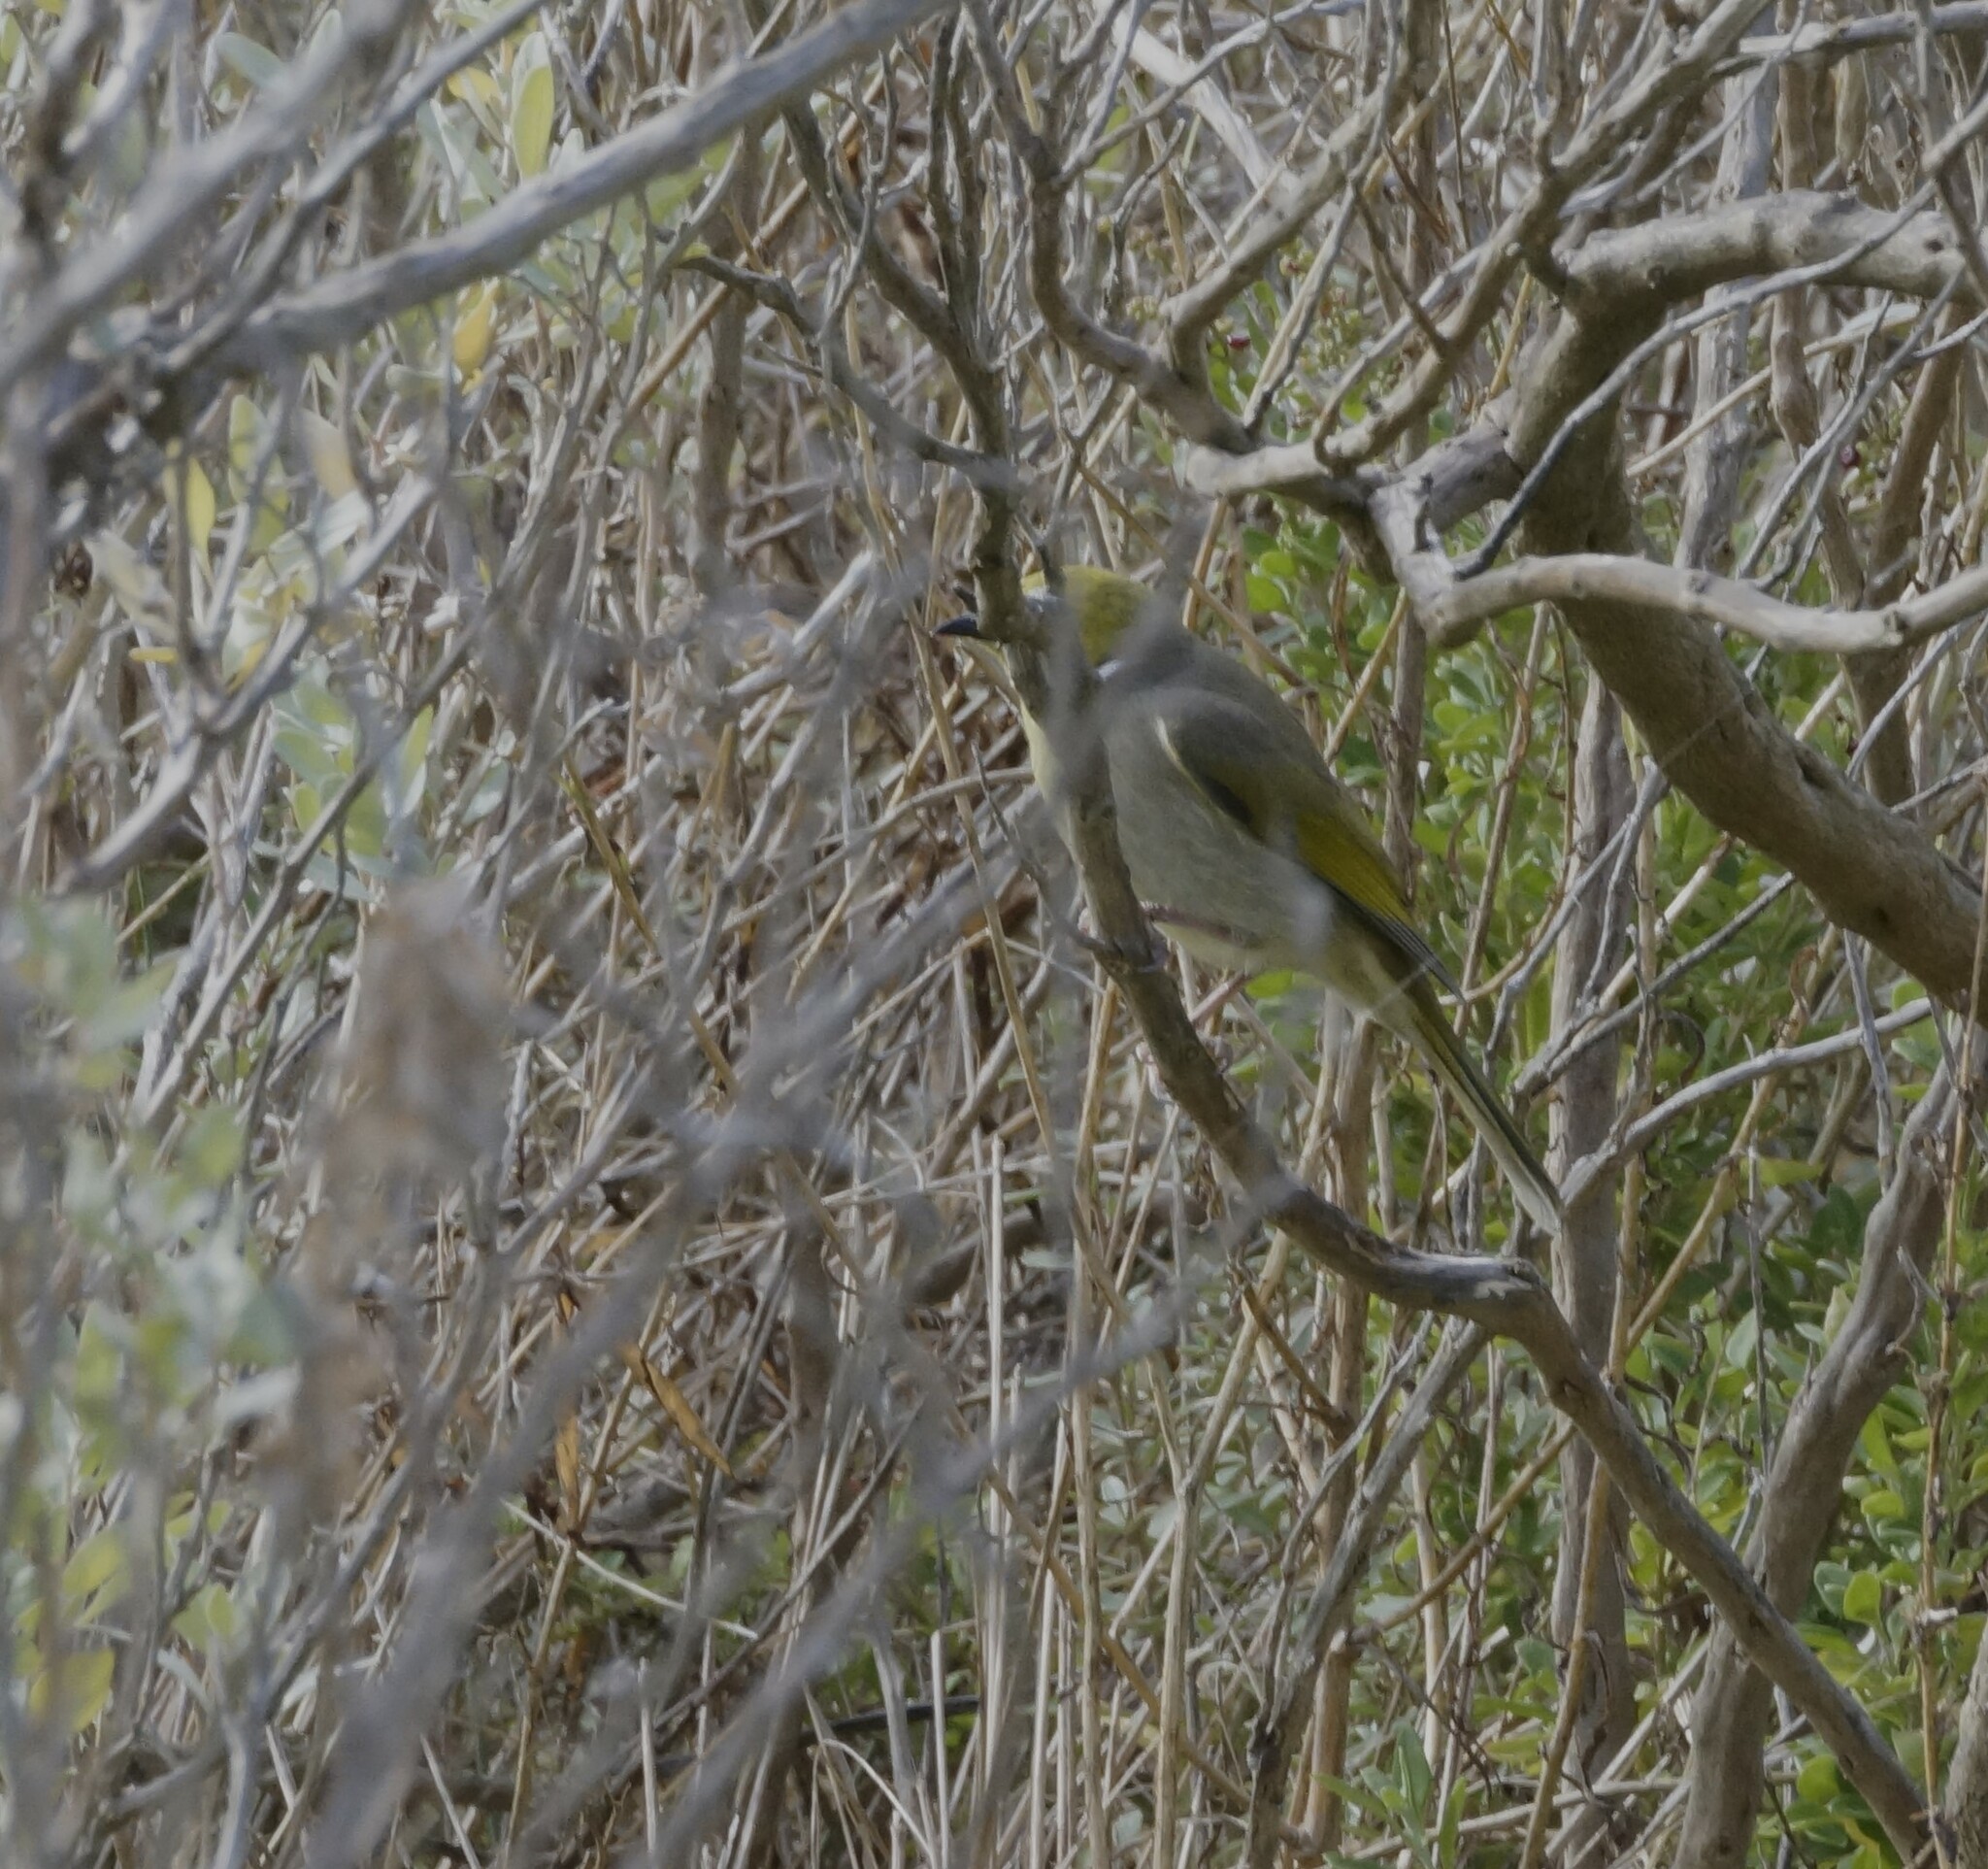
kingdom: Animalia
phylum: Chordata
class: Aves
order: Passeriformes
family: Meliphagidae
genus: Ptilotula
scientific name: Ptilotula penicillata
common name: White-plumed honeyeater
